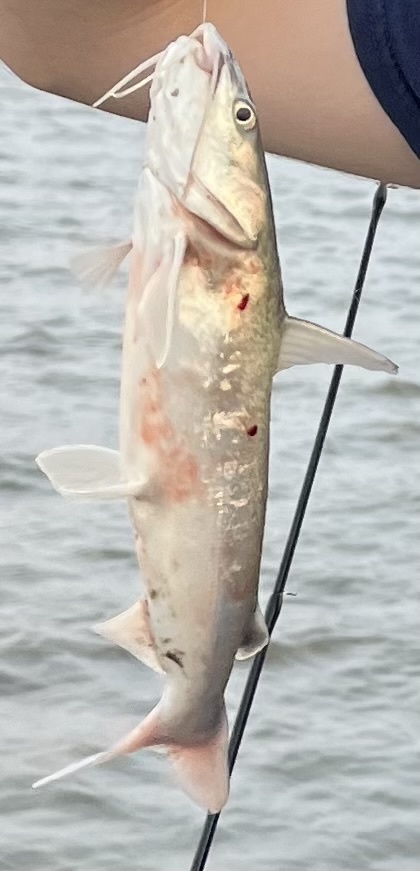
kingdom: Animalia
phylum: Chordata
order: Siluriformes
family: Ariidae
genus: Ariopsis
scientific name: Ariopsis felis
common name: Hardhead catfish
